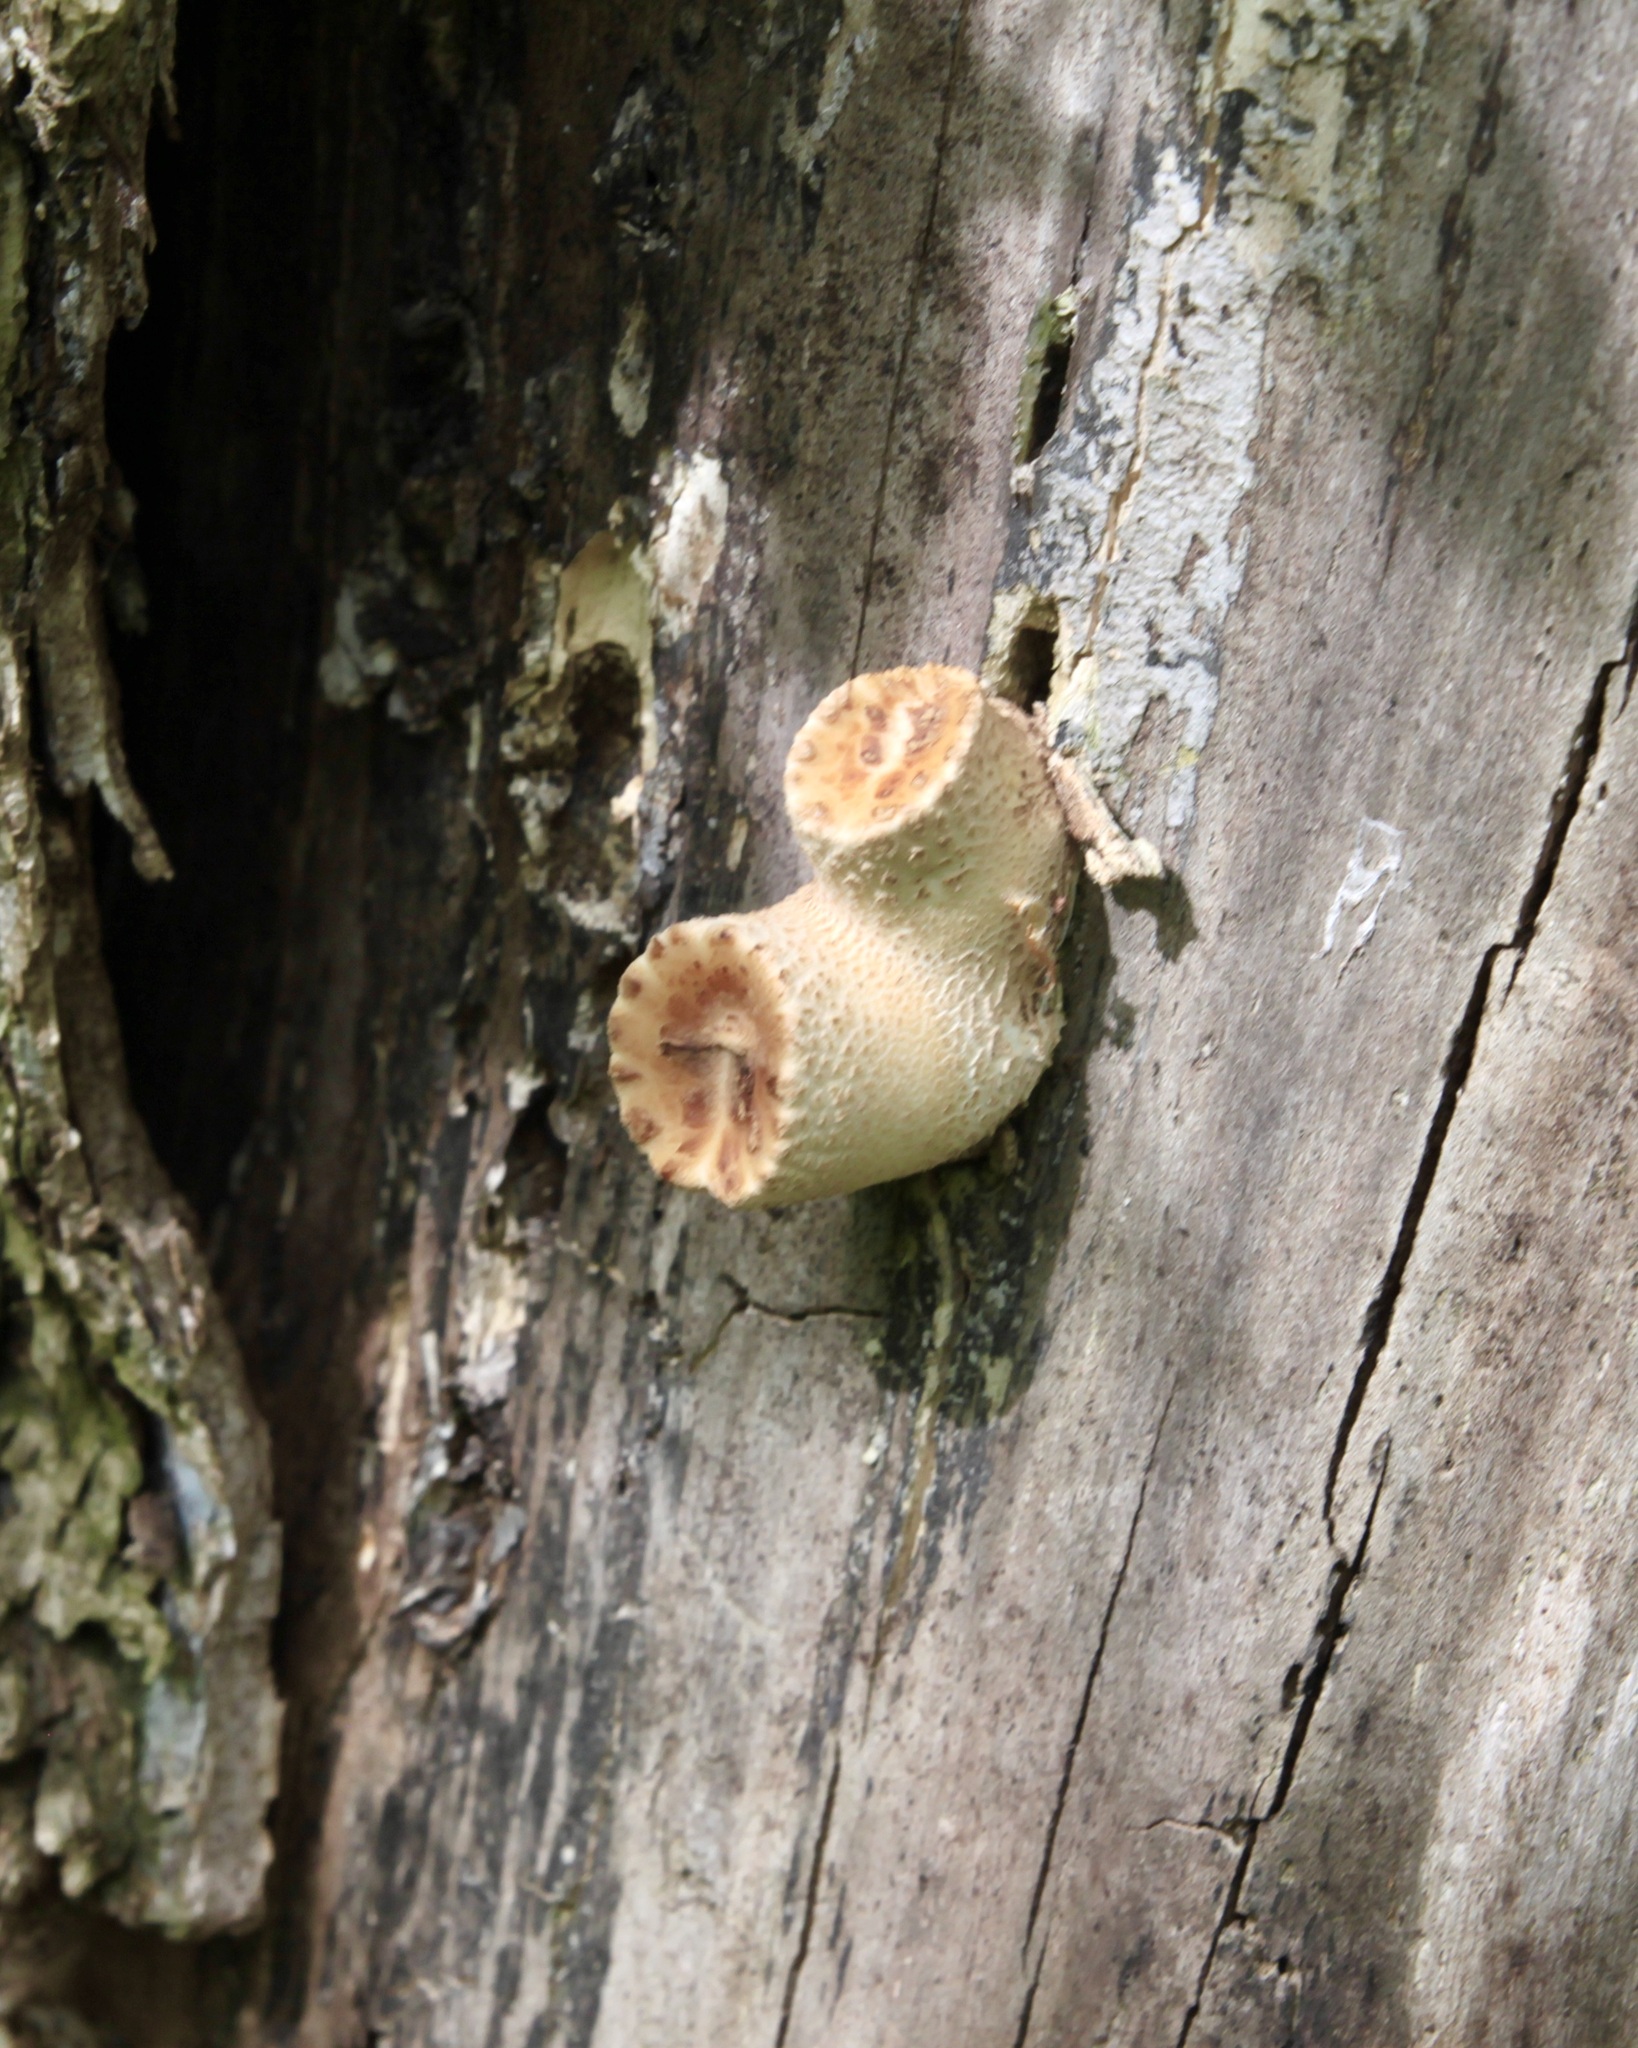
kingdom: Fungi
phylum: Basidiomycota
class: Agaricomycetes
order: Polyporales
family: Polyporaceae
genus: Cerioporus
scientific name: Cerioporus squamosus
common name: Dryad's saddle
